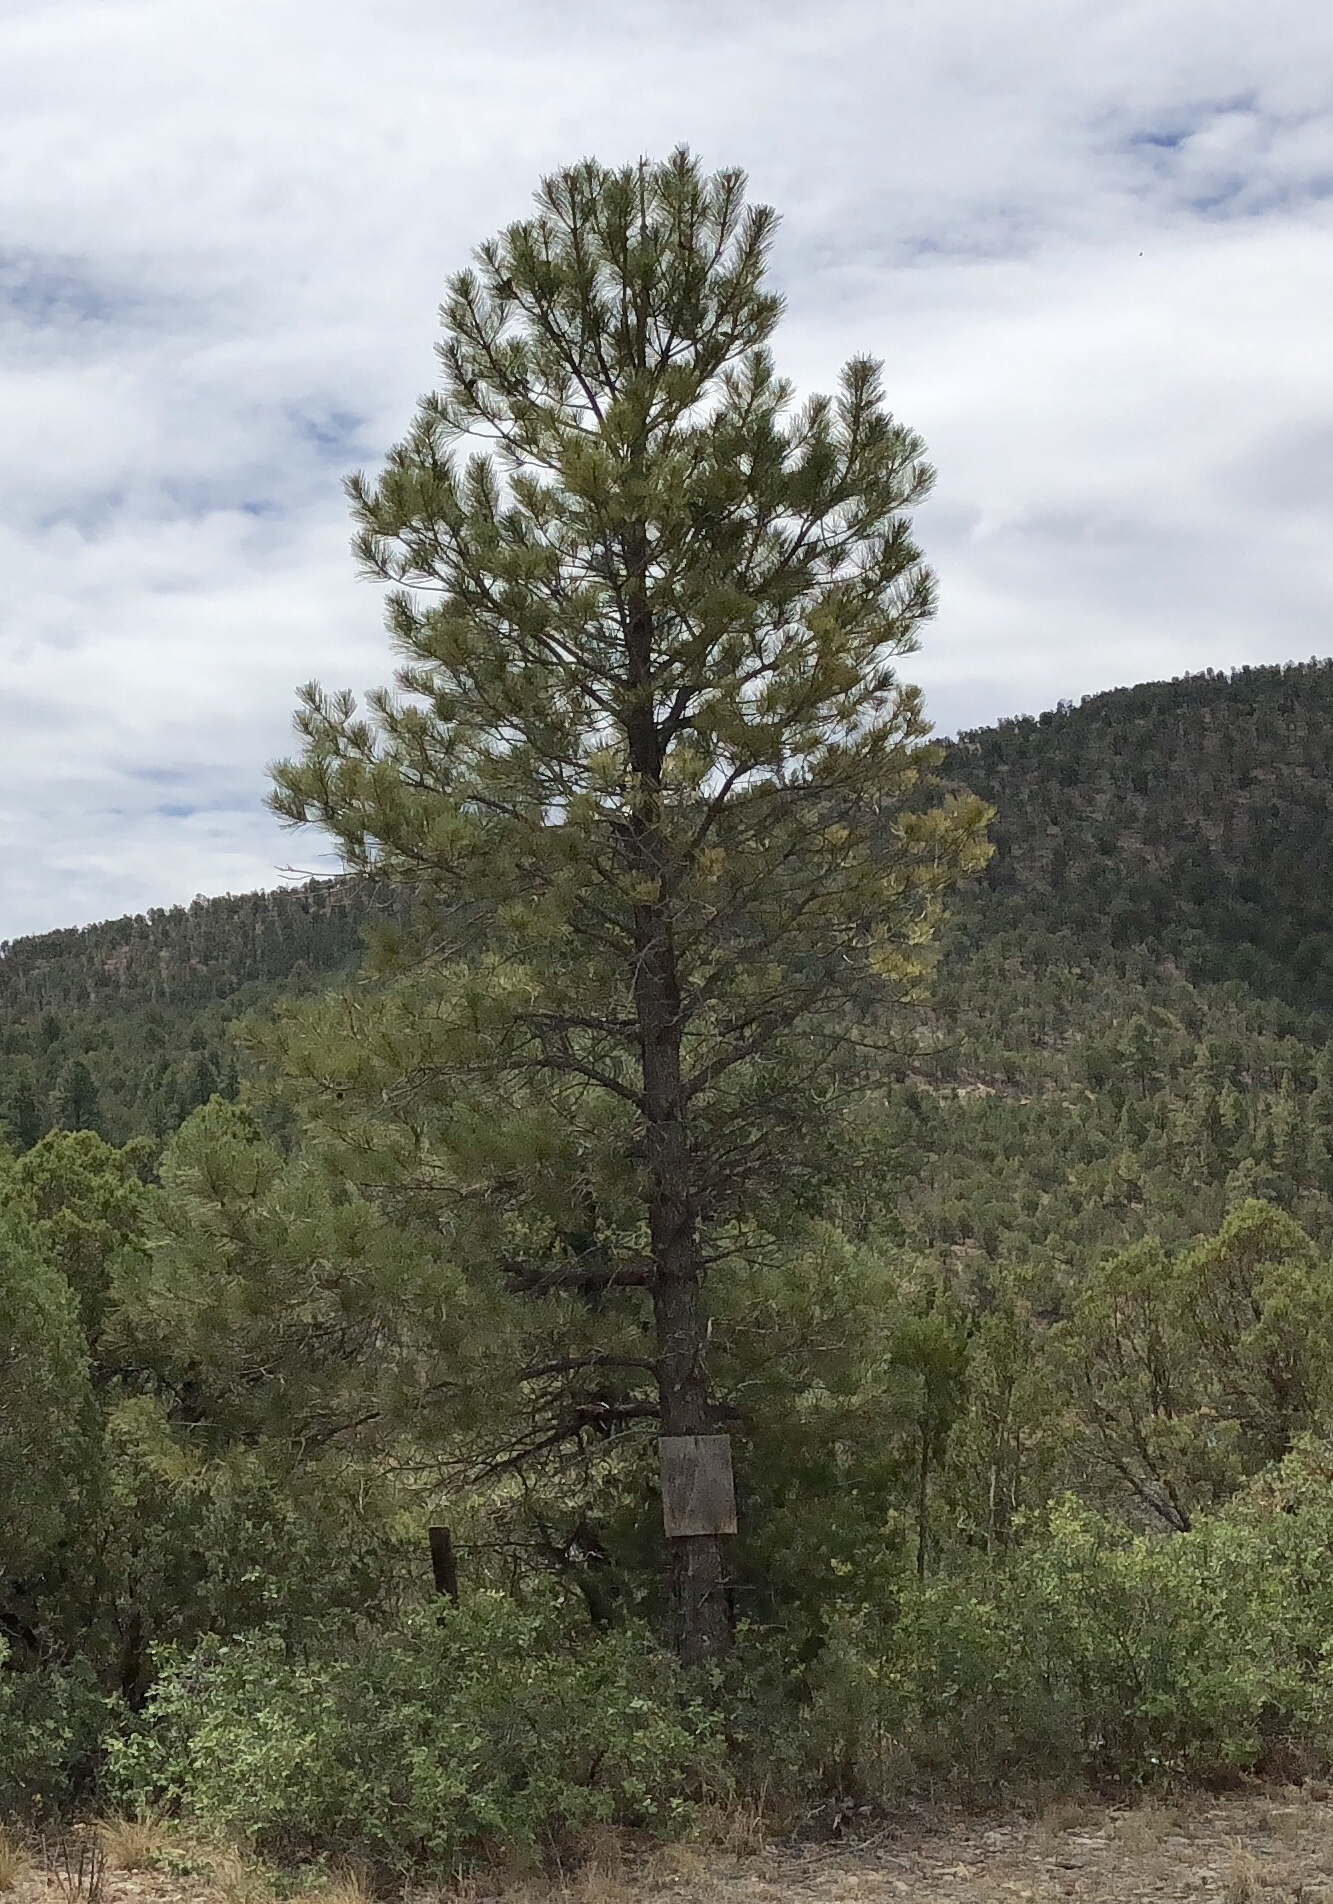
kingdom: Plantae
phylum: Tracheophyta
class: Pinopsida
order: Pinales
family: Pinaceae
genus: Pinus
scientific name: Pinus ponderosa
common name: Western yellow-pine
